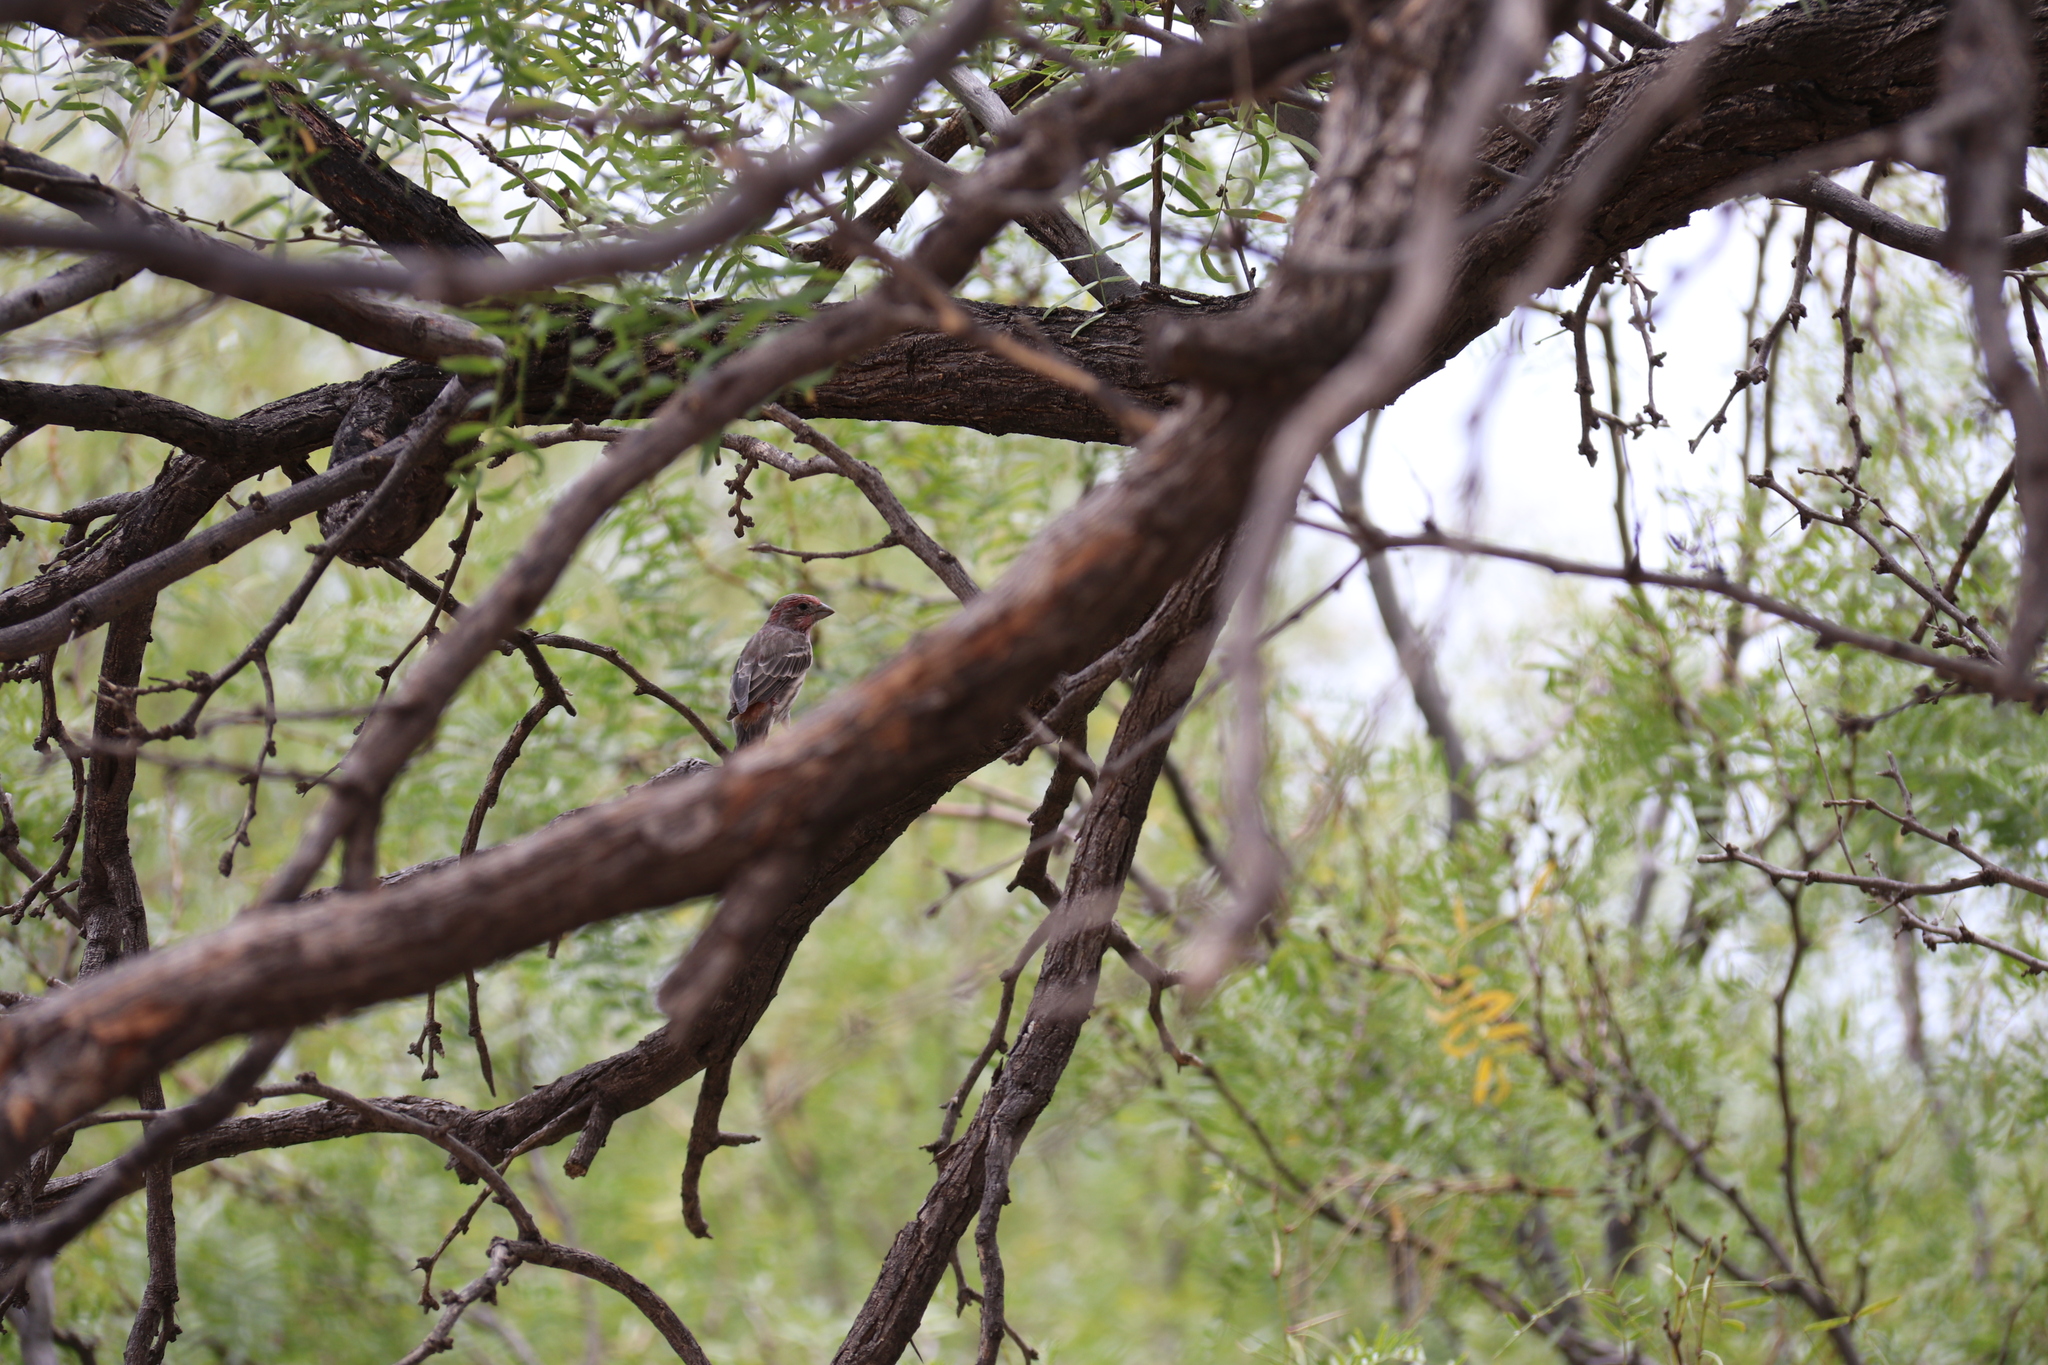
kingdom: Animalia
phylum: Chordata
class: Aves
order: Passeriformes
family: Fringillidae
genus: Haemorhous
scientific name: Haemorhous mexicanus
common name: House finch
